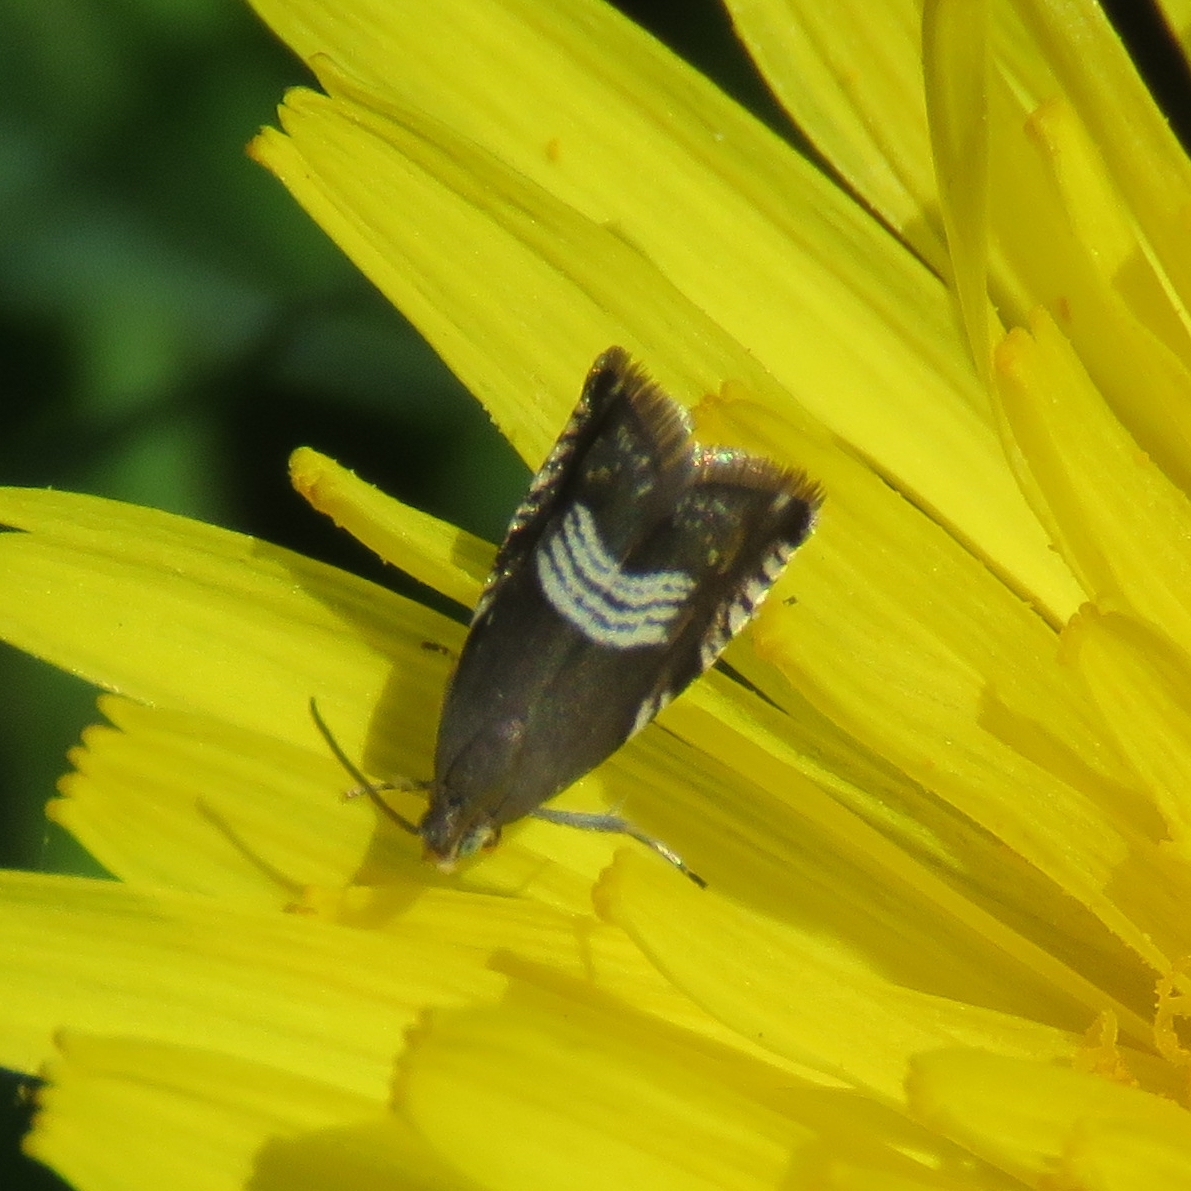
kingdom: Animalia
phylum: Arthropoda
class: Insecta
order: Lepidoptera
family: Tortricidae
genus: Grapholita
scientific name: Grapholita compositella
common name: Triple-stripe piercer
